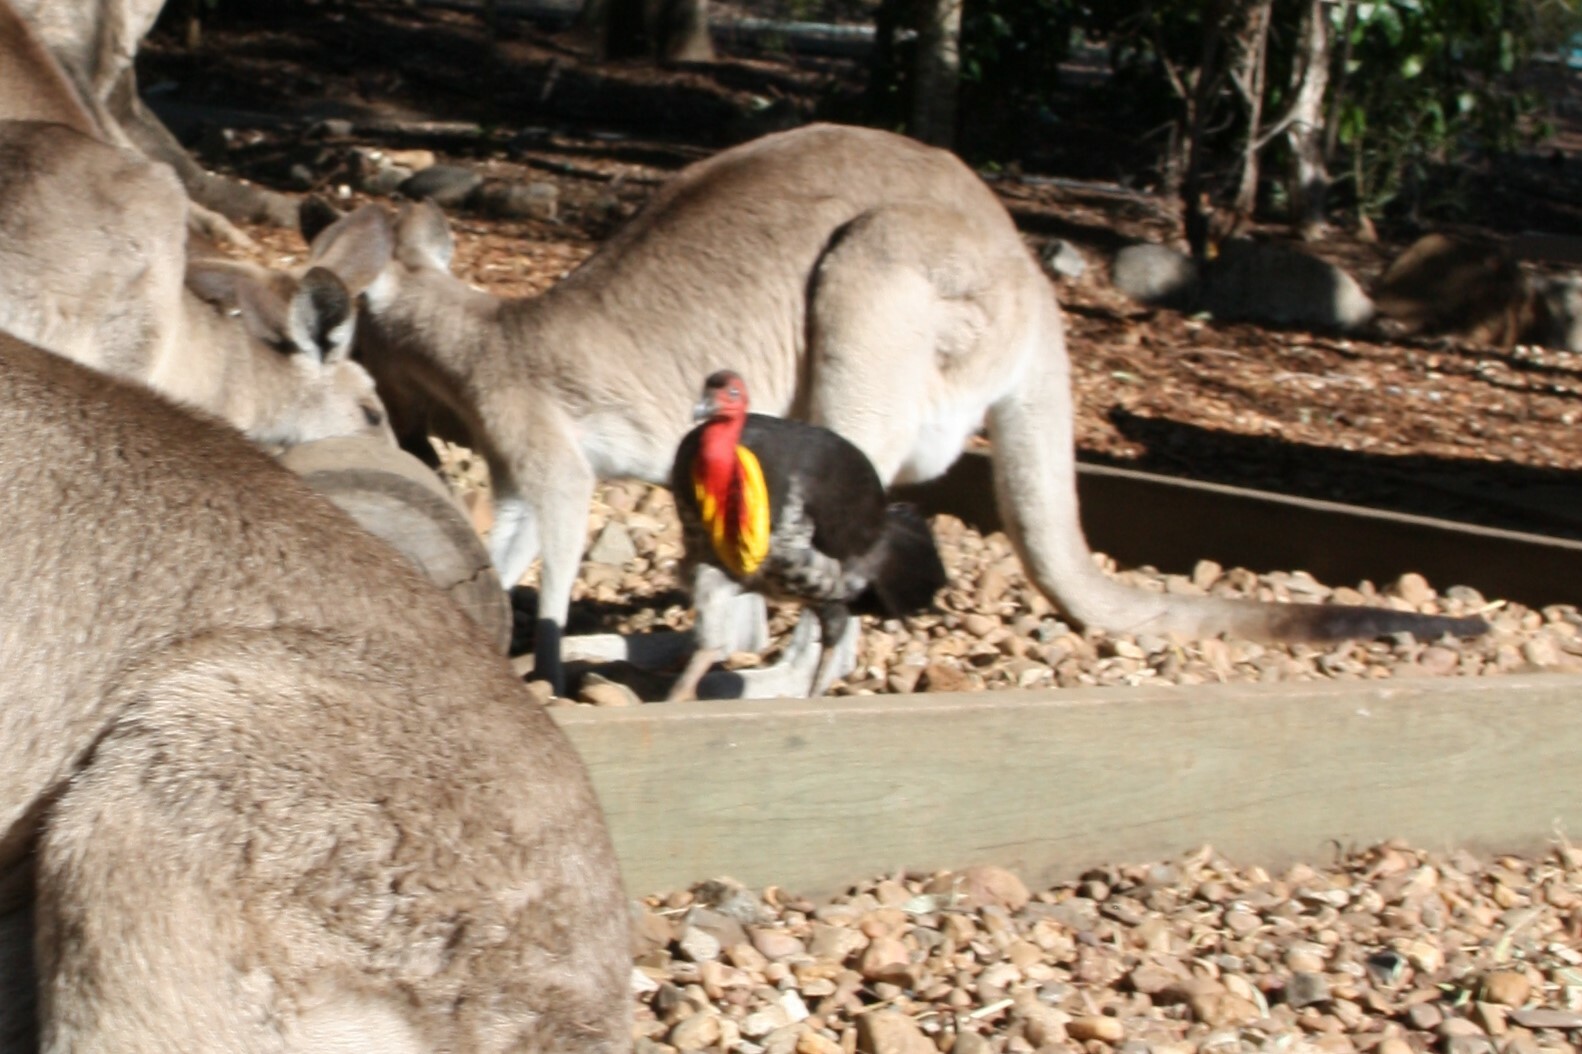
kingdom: Animalia
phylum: Chordata
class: Aves
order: Galliformes
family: Megapodiidae
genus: Alectura
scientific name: Alectura lathami
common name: Australian brushturkey
